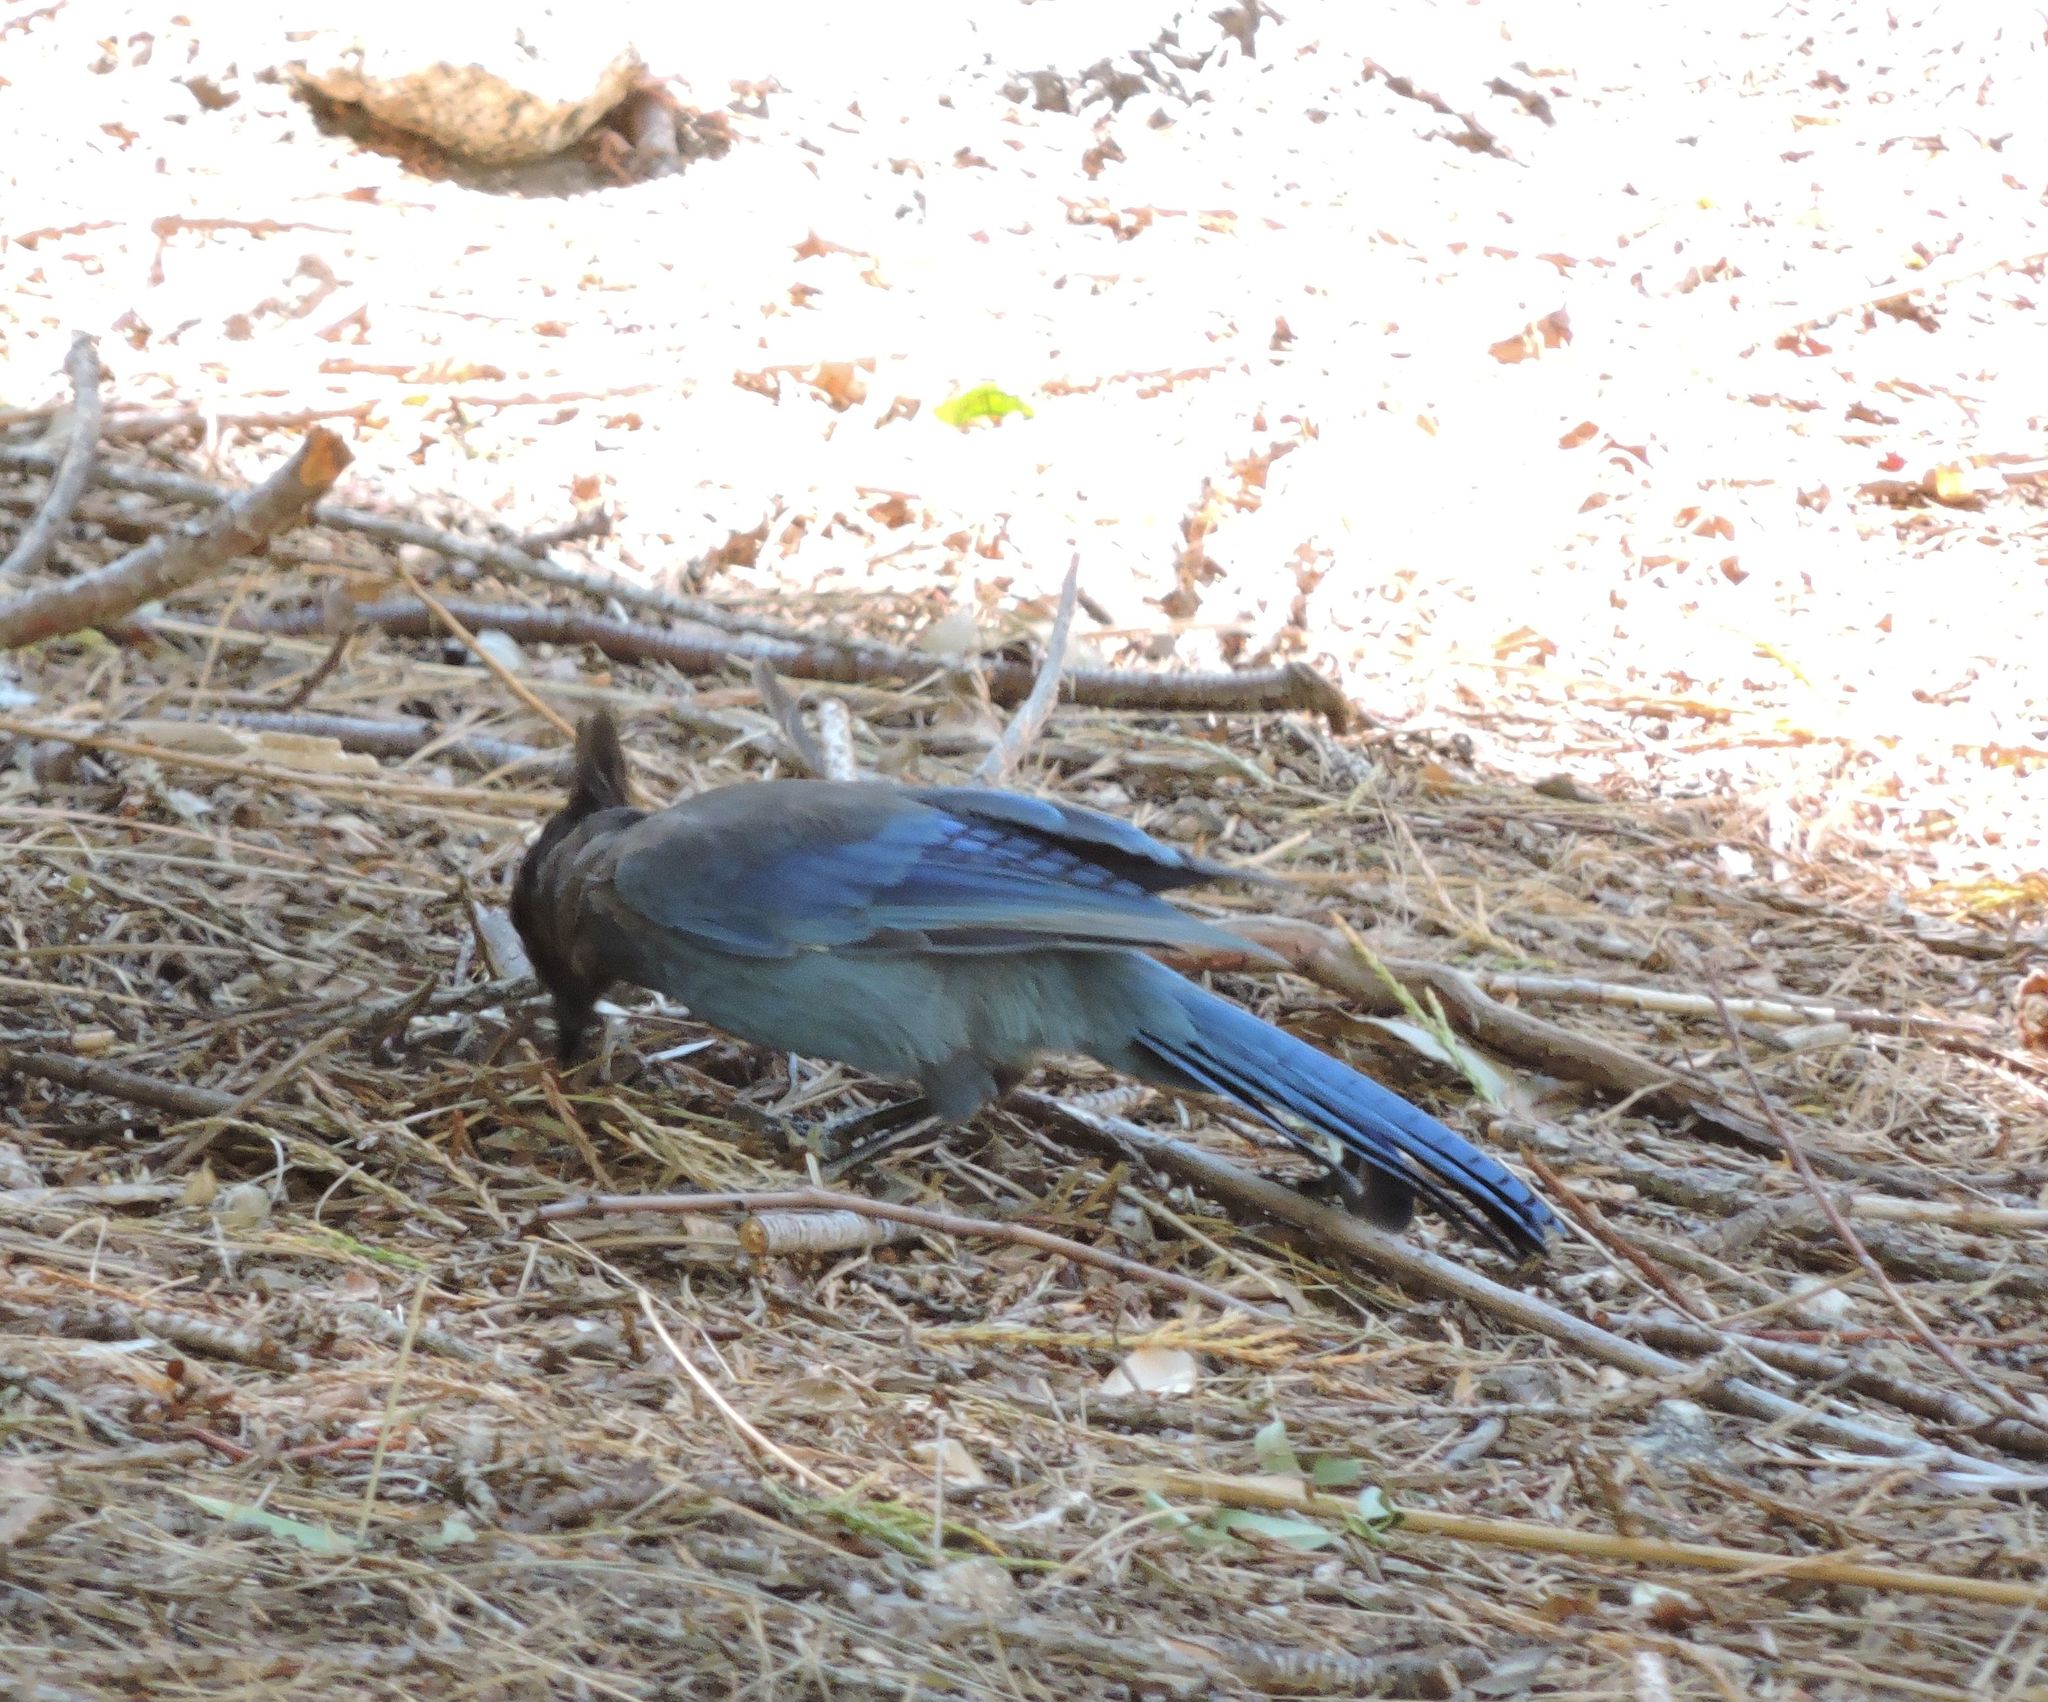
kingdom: Animalia
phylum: Chordata
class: Aves
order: Passeriformes
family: Corvidae
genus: Cyanocitta
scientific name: Cyanocitta stelleri
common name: Steller's jay
